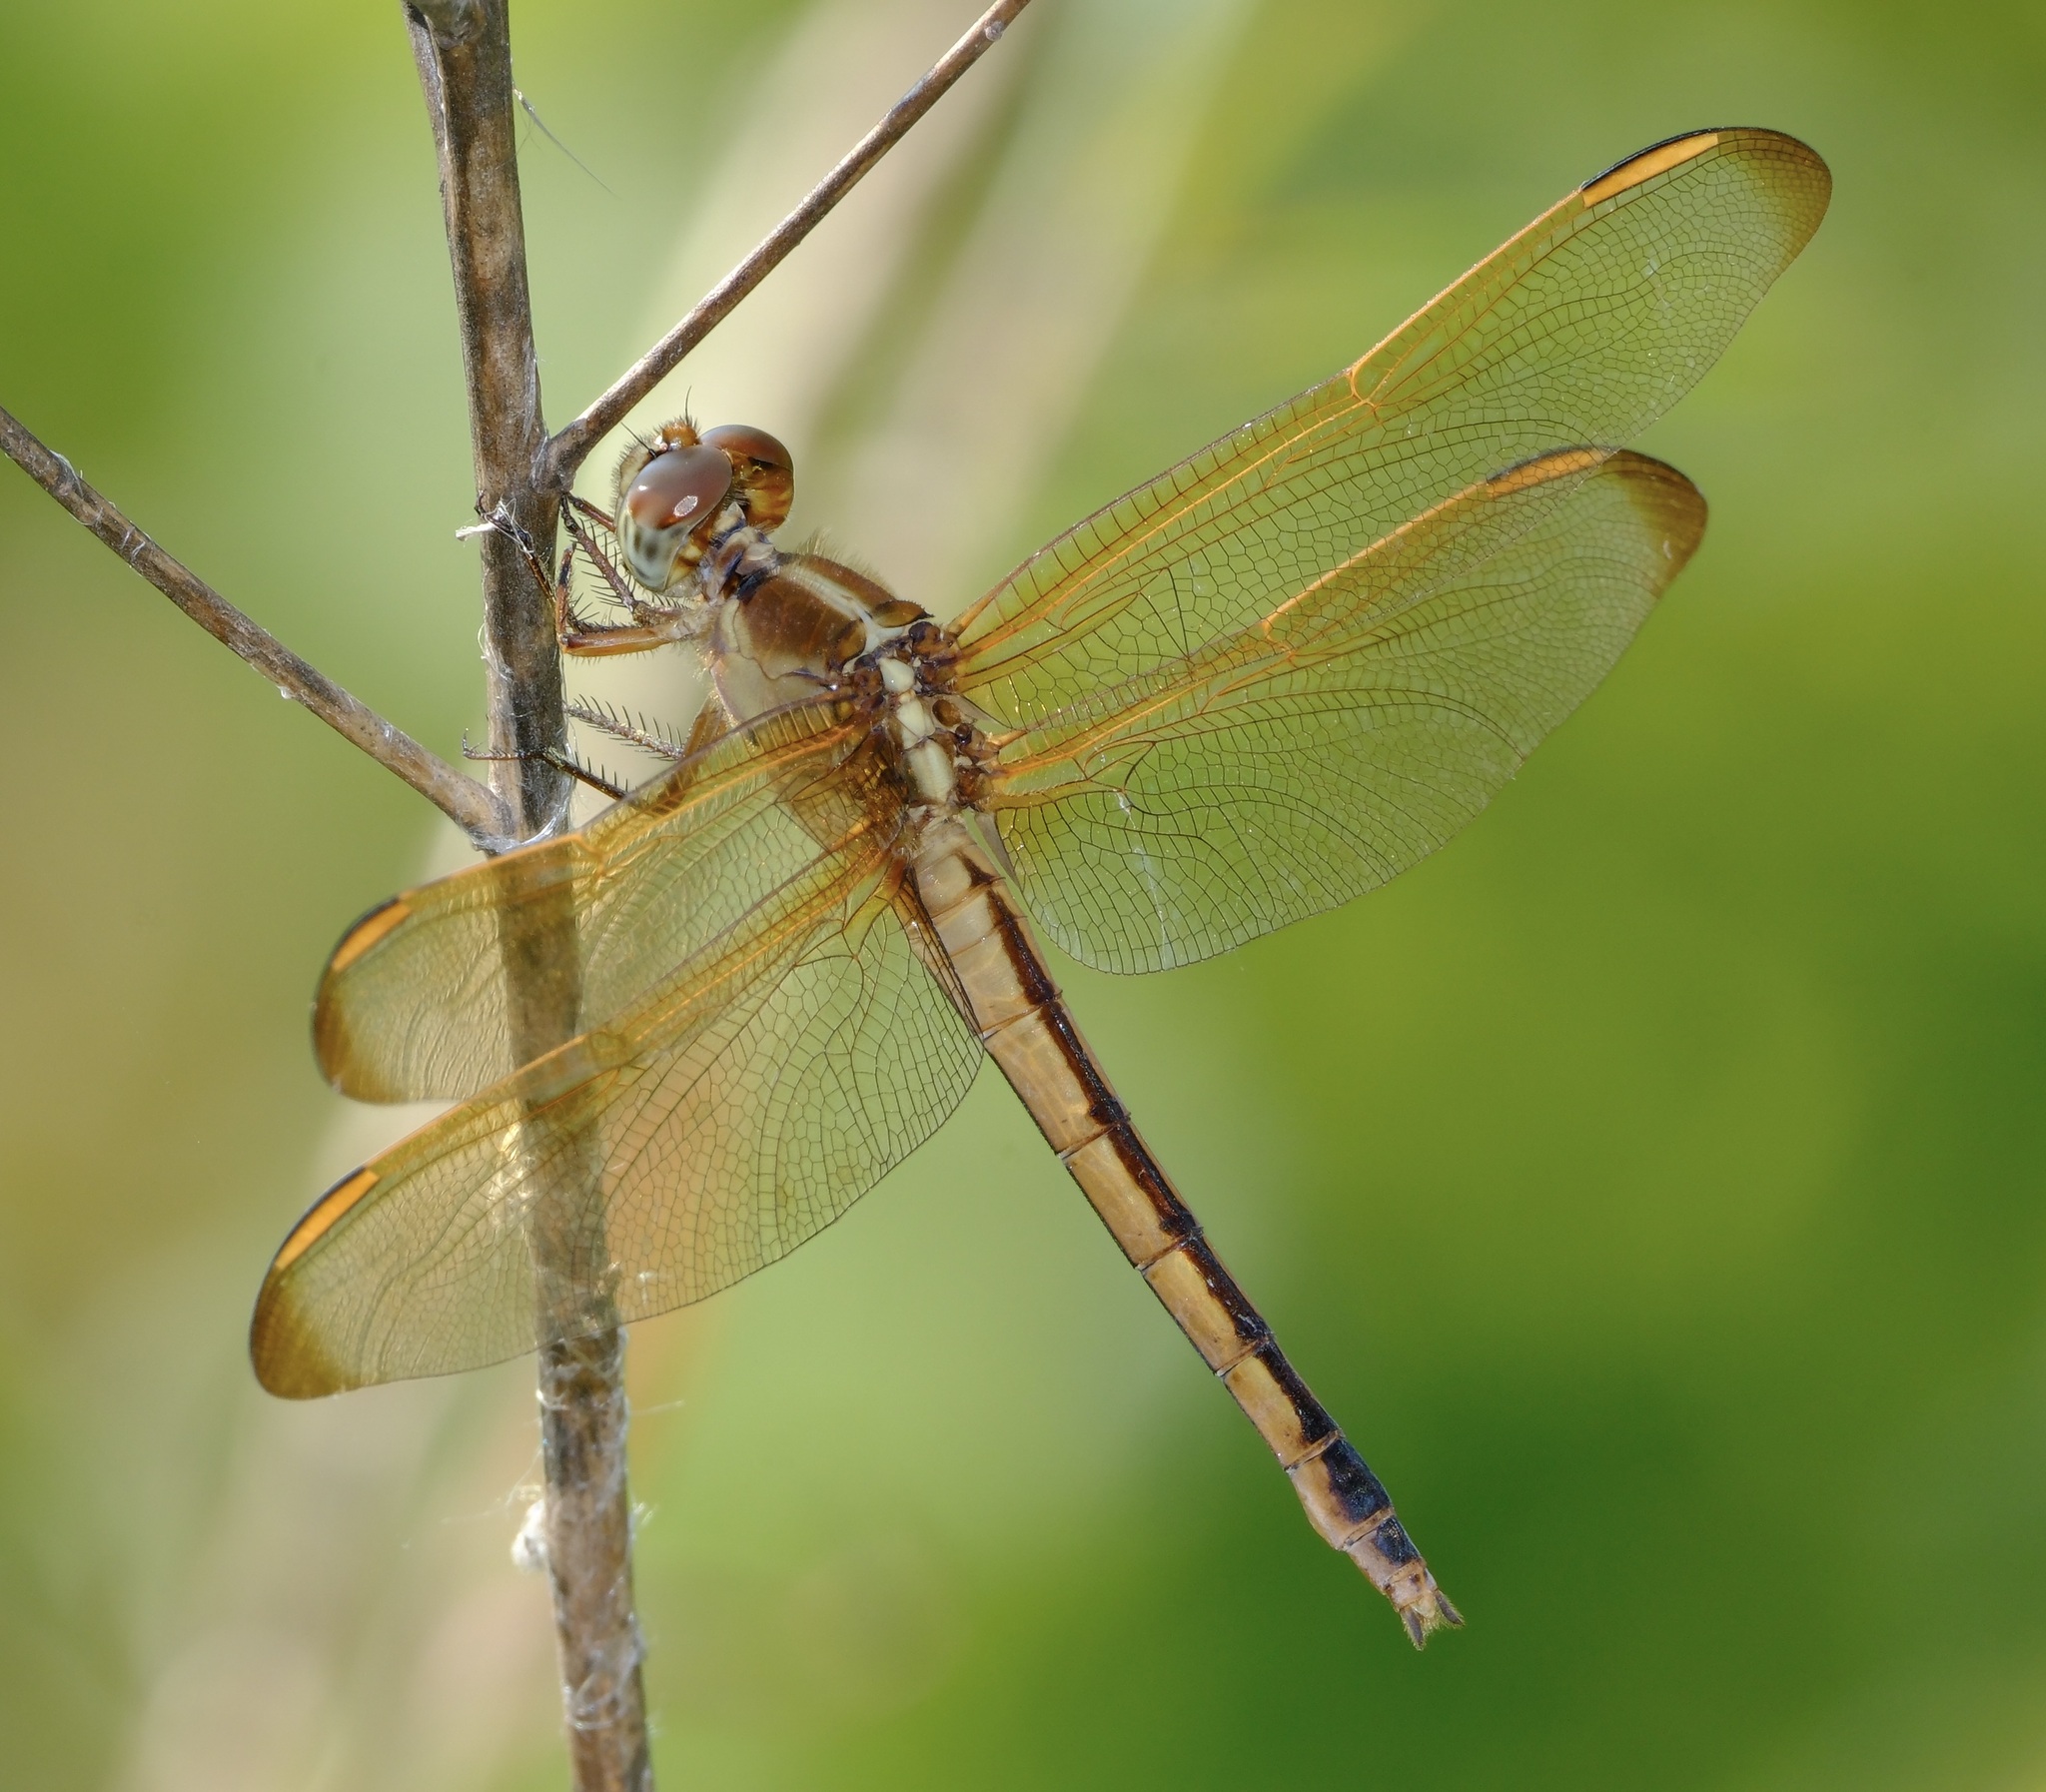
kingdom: Animalia
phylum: Arthropoda
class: Insecta
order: Odonata
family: Libellulidae
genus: Libellula
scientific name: Libellula needhami
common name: Needham's skimmer
